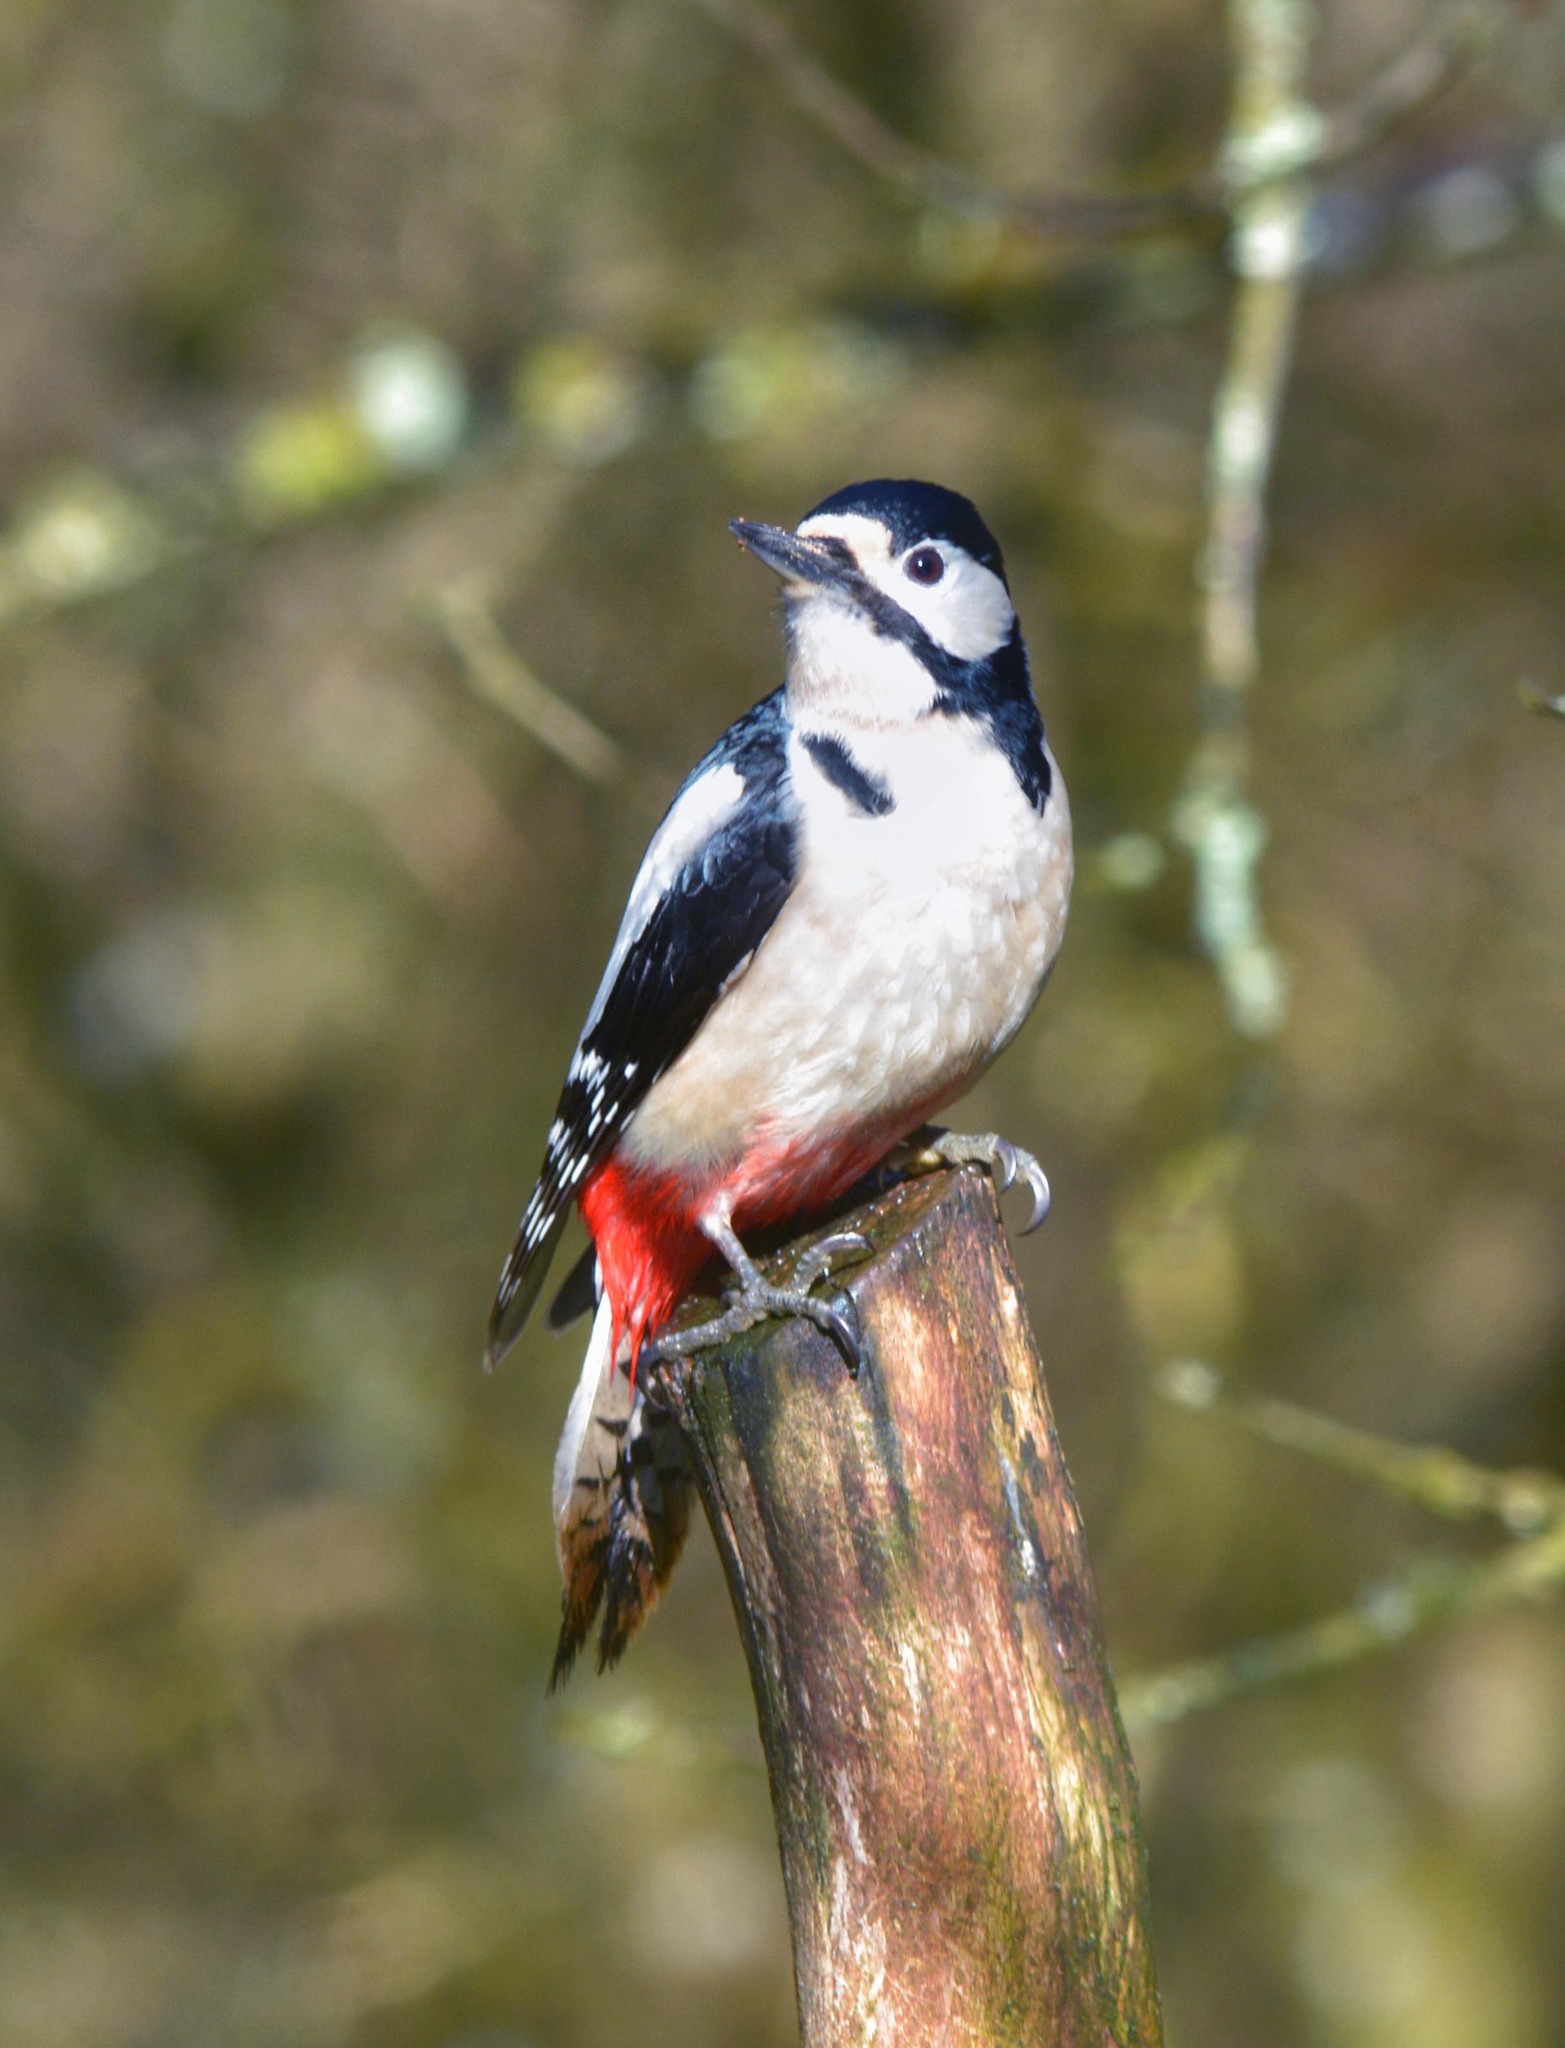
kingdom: Animalia
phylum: Chordata
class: Aves
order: Piciformes
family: Picidae
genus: Dendrocopos
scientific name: Dendrocopos major
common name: Great spotted woodpecker
